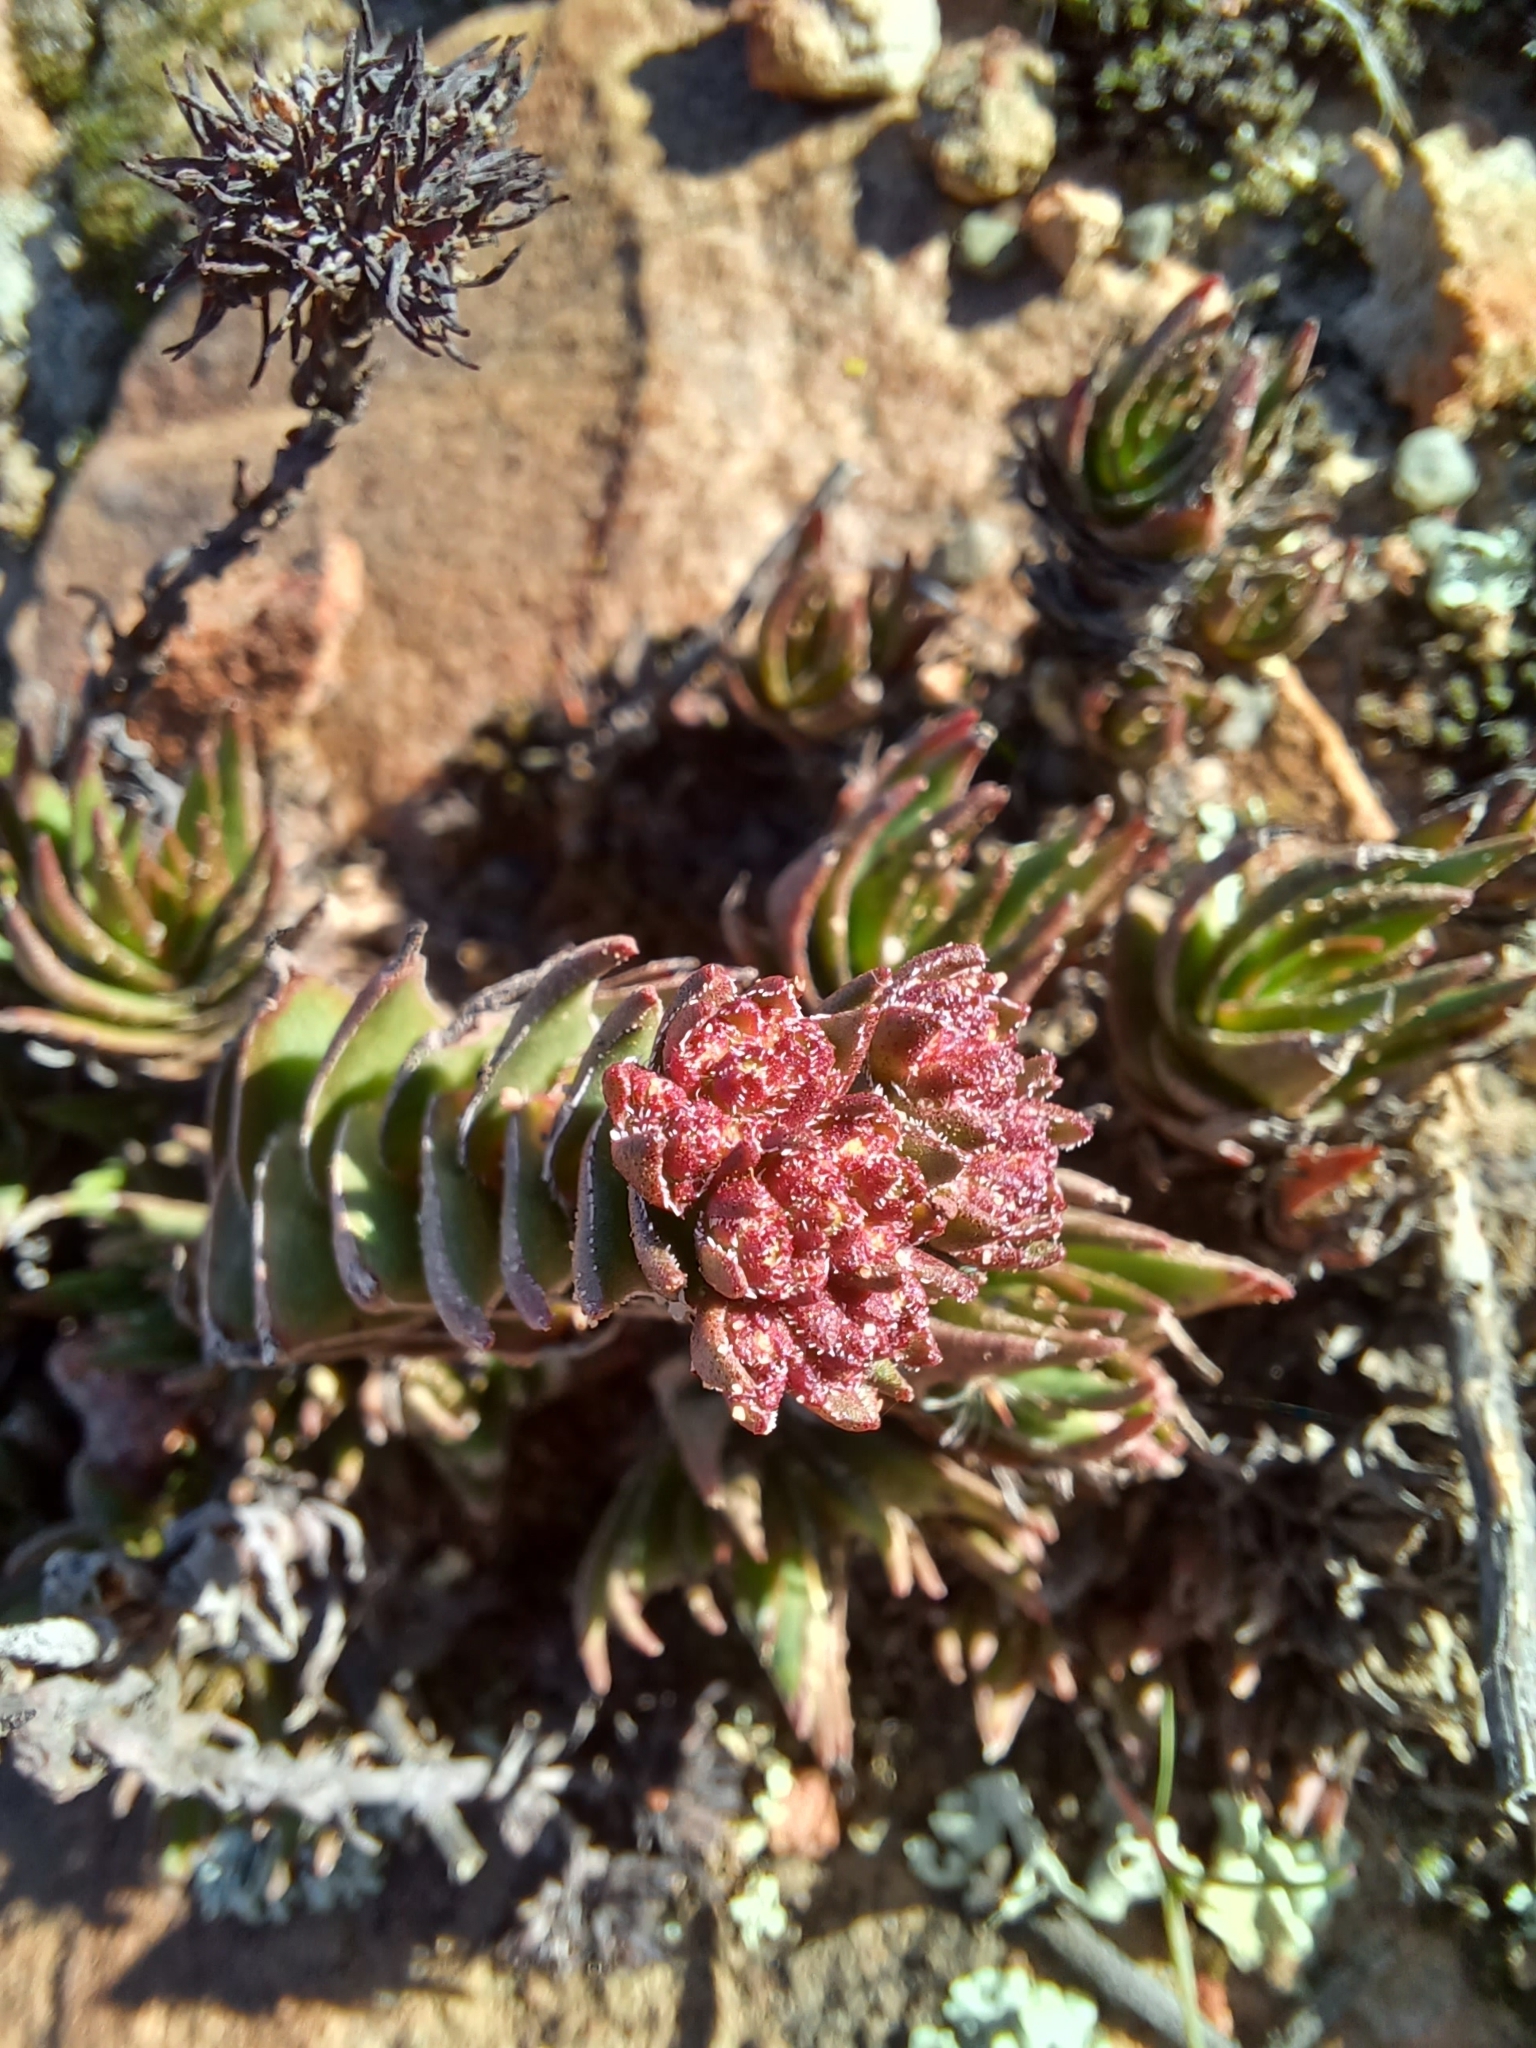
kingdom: Plantae
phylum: Tracheophyta
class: Magnoliopsida
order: Saxifragales
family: Crassulaceae
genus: Crassula
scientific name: Crassula alpestris
